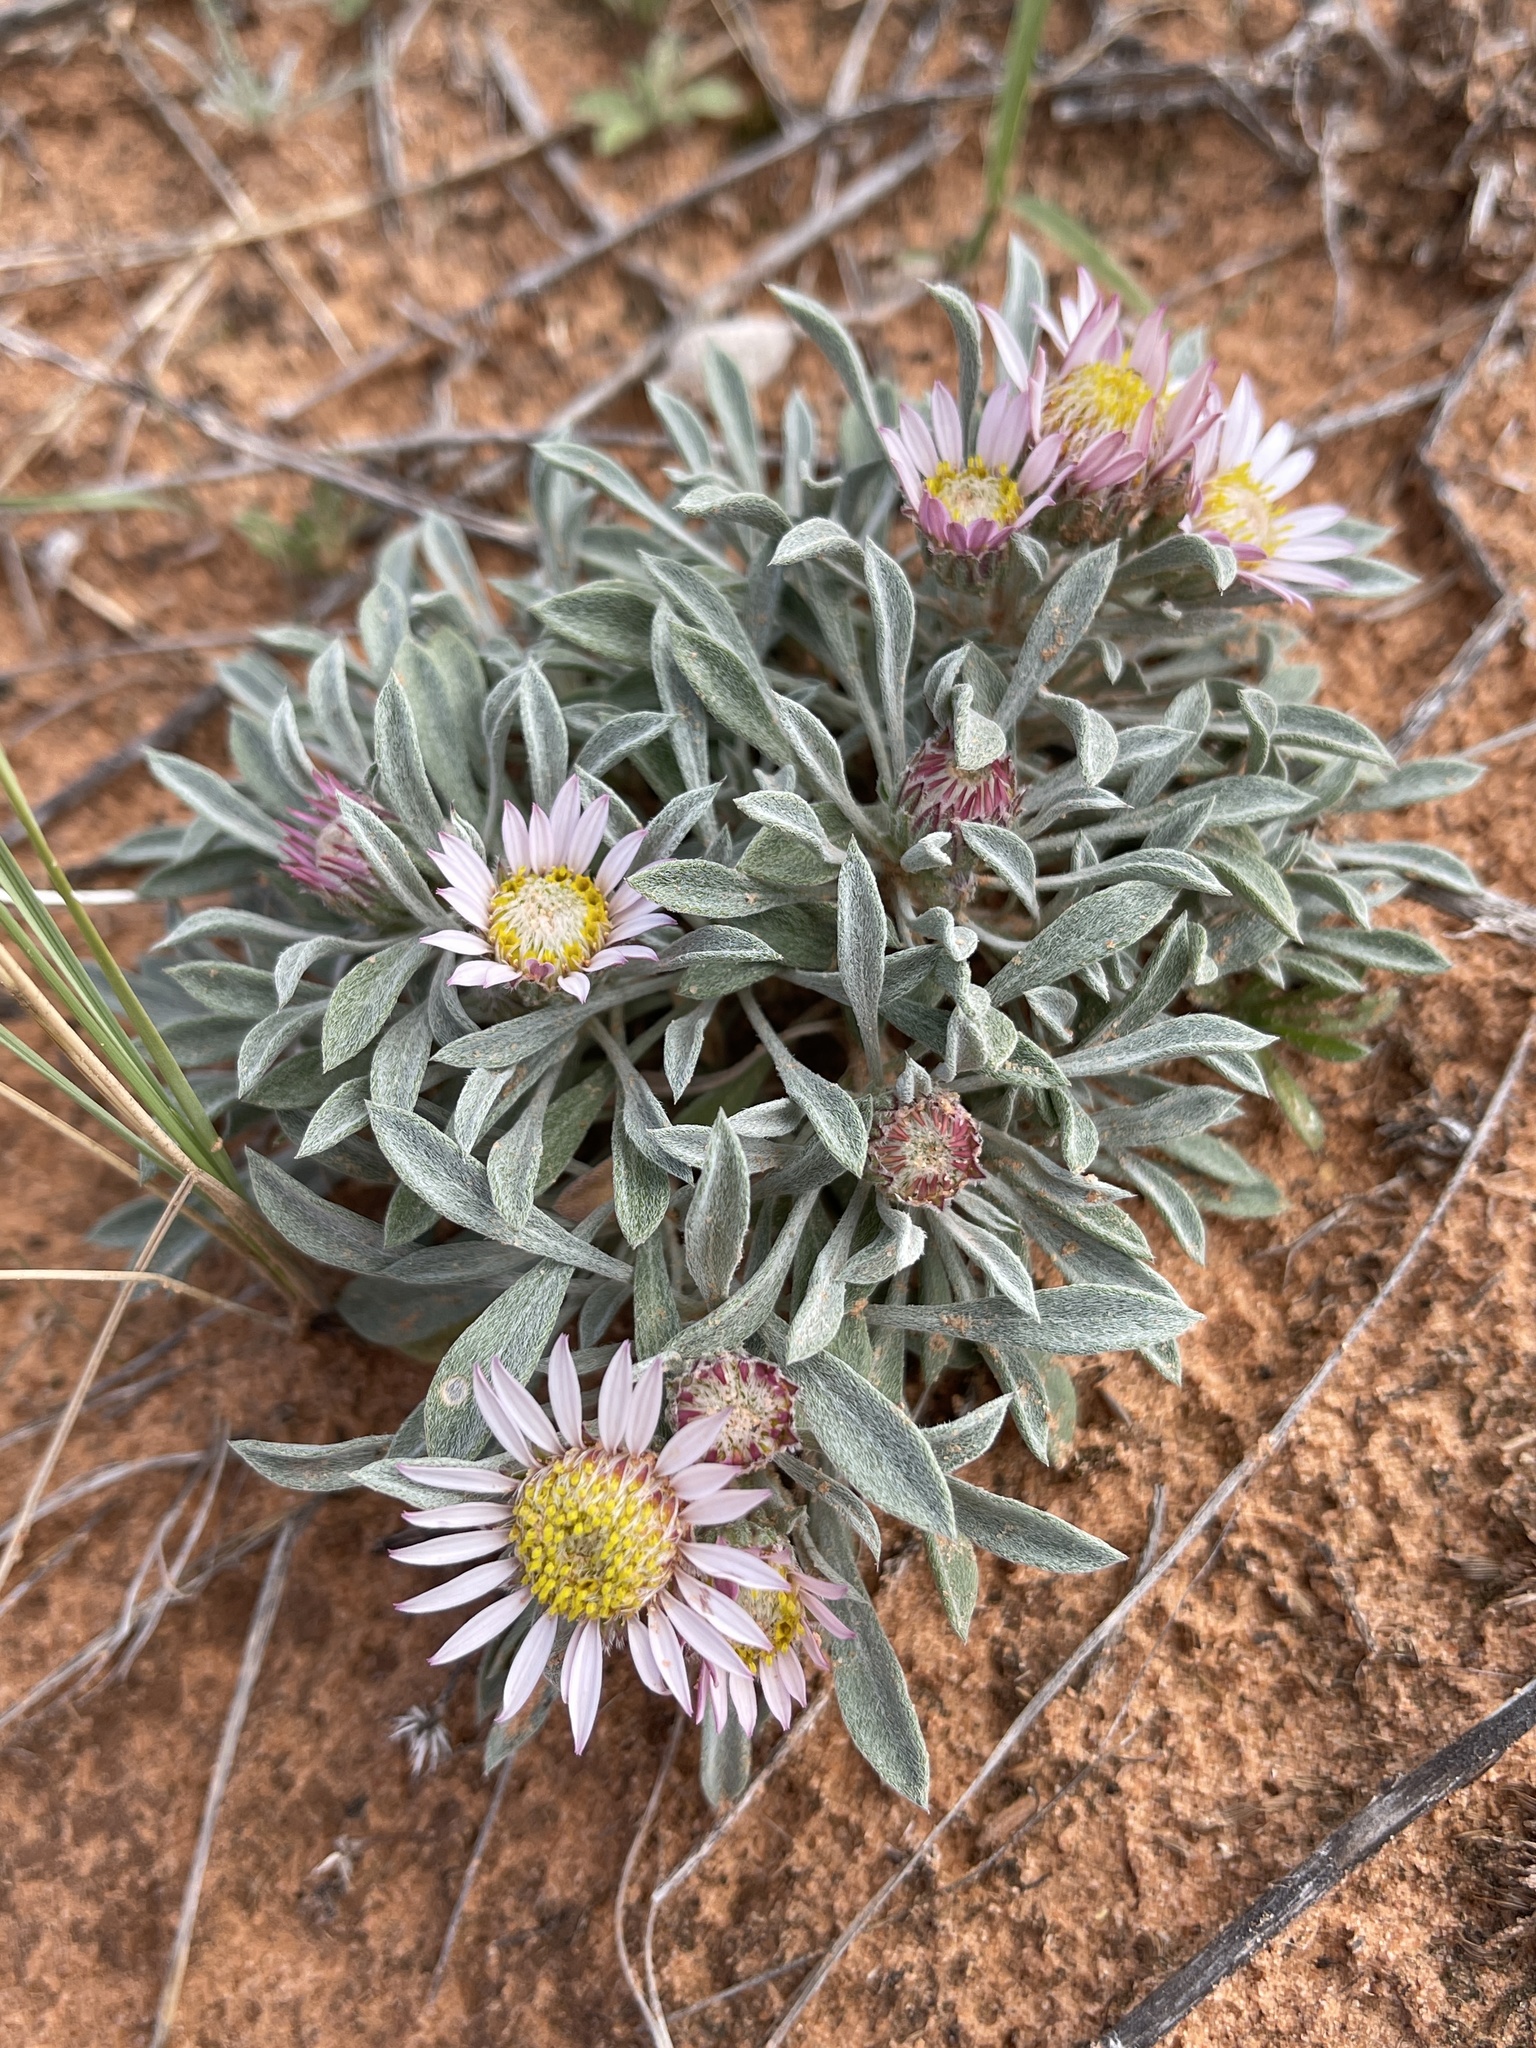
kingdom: Plantae
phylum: Tracheophyta
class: Magnoliopsida
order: Asterales
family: Asteraceae
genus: Townsendia
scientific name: Townsendia incana
